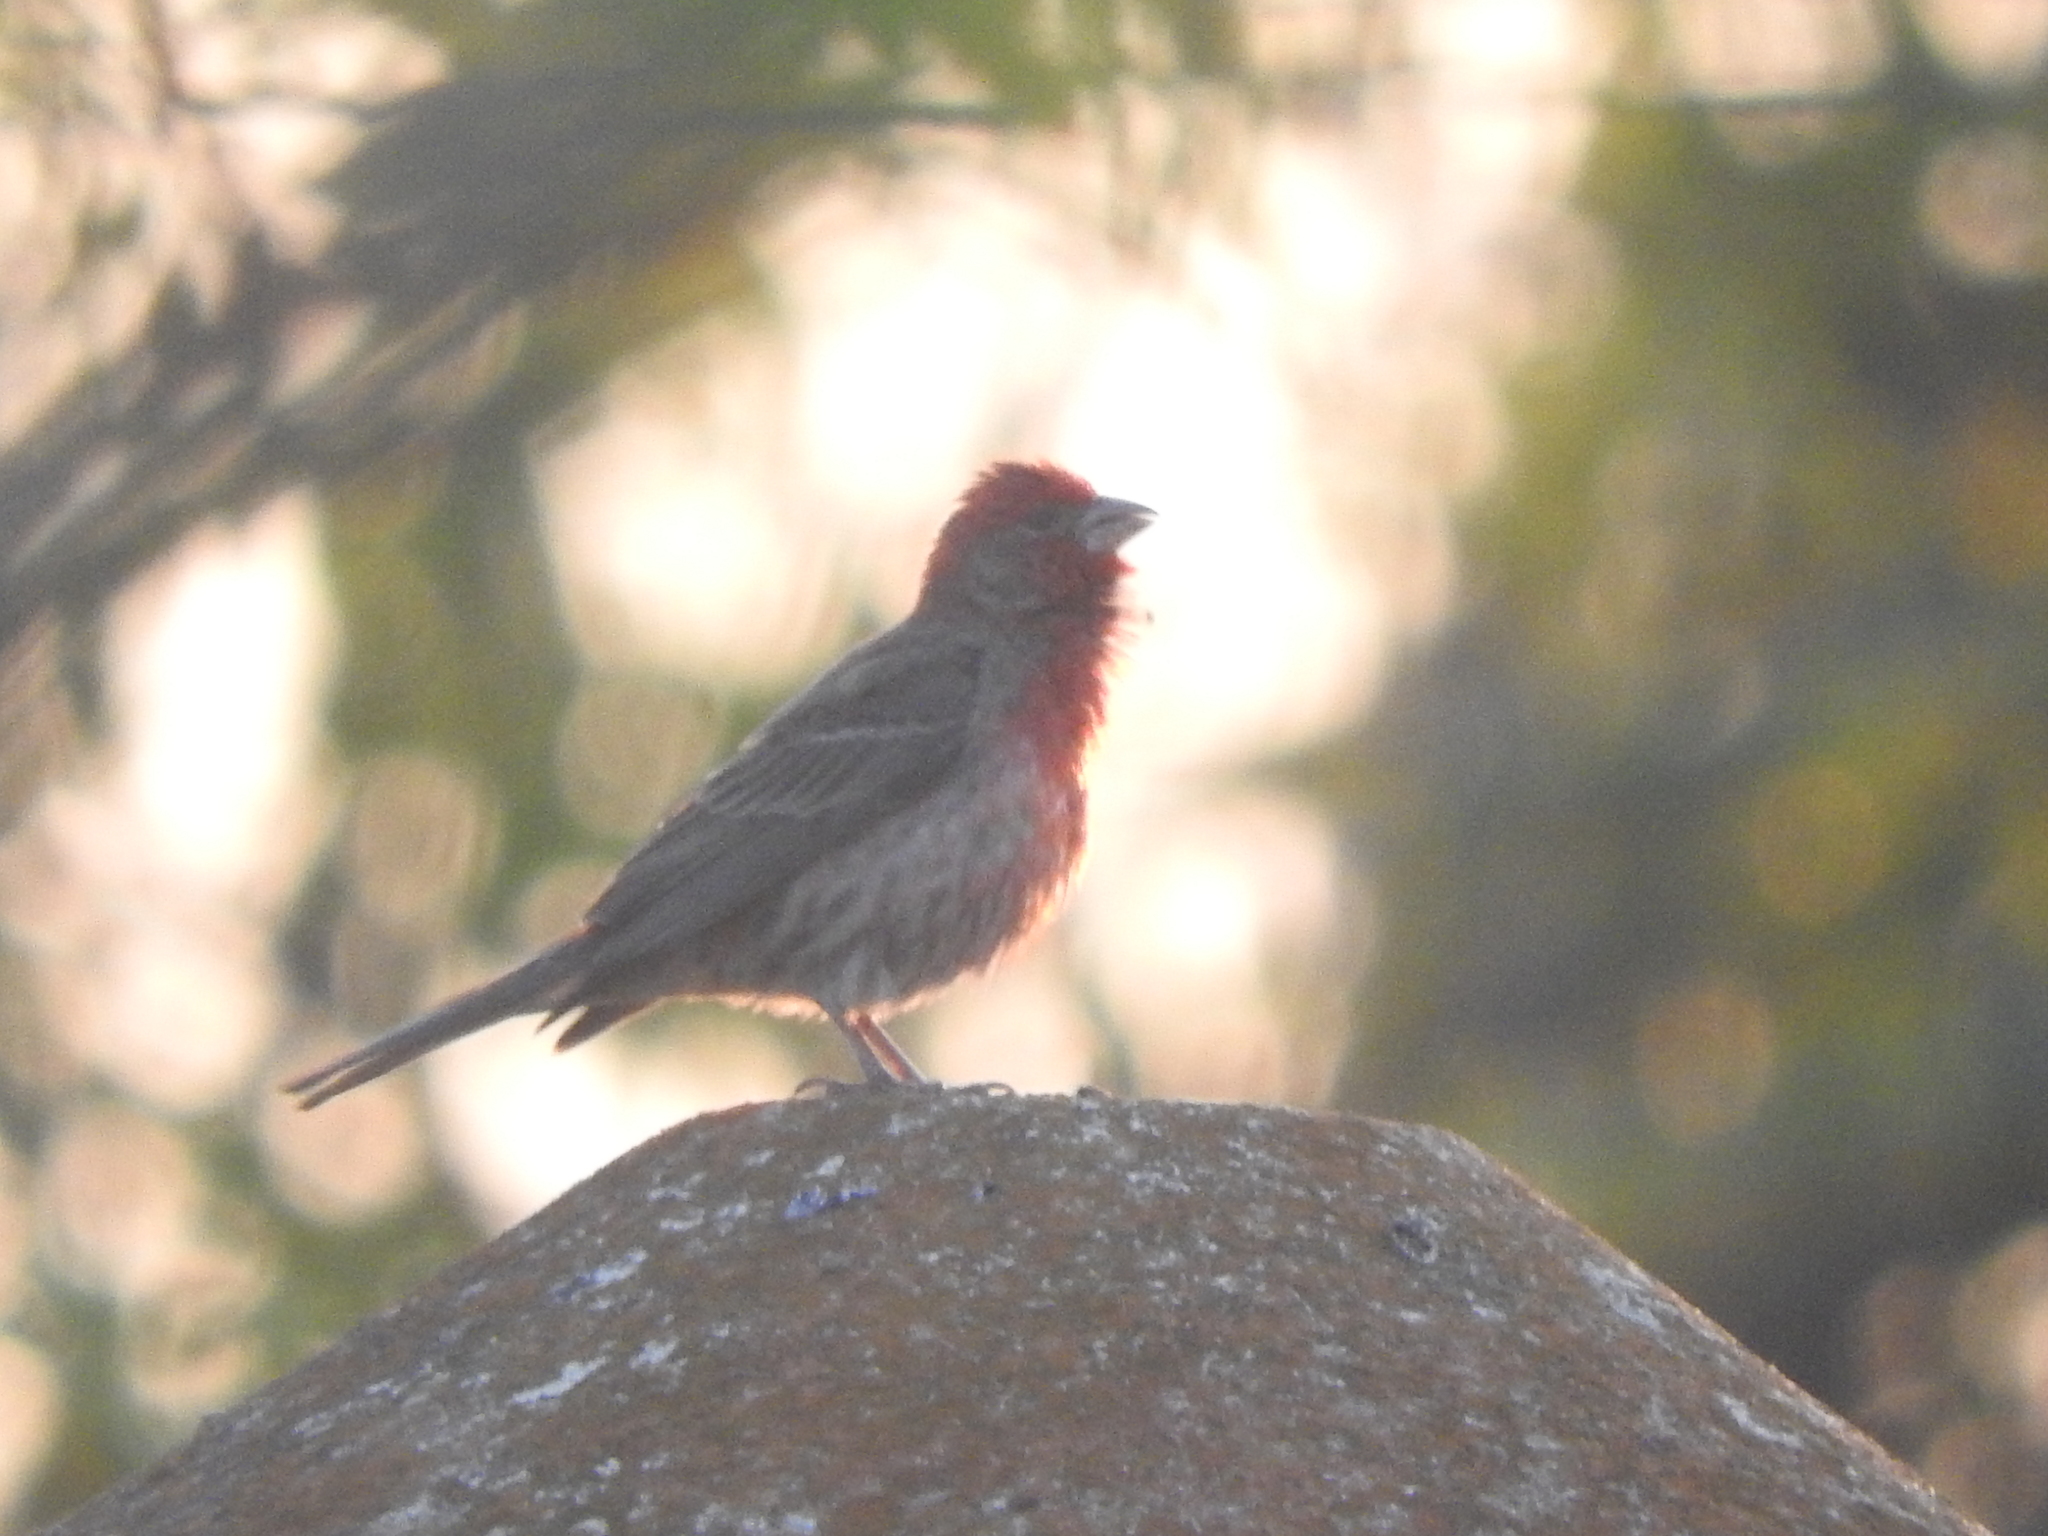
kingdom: Animalia
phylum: Chordata
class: Aves
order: Passeriformes
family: Fringillidae
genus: Haemorhous
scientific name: Haemorhous mexicanus
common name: House finch
